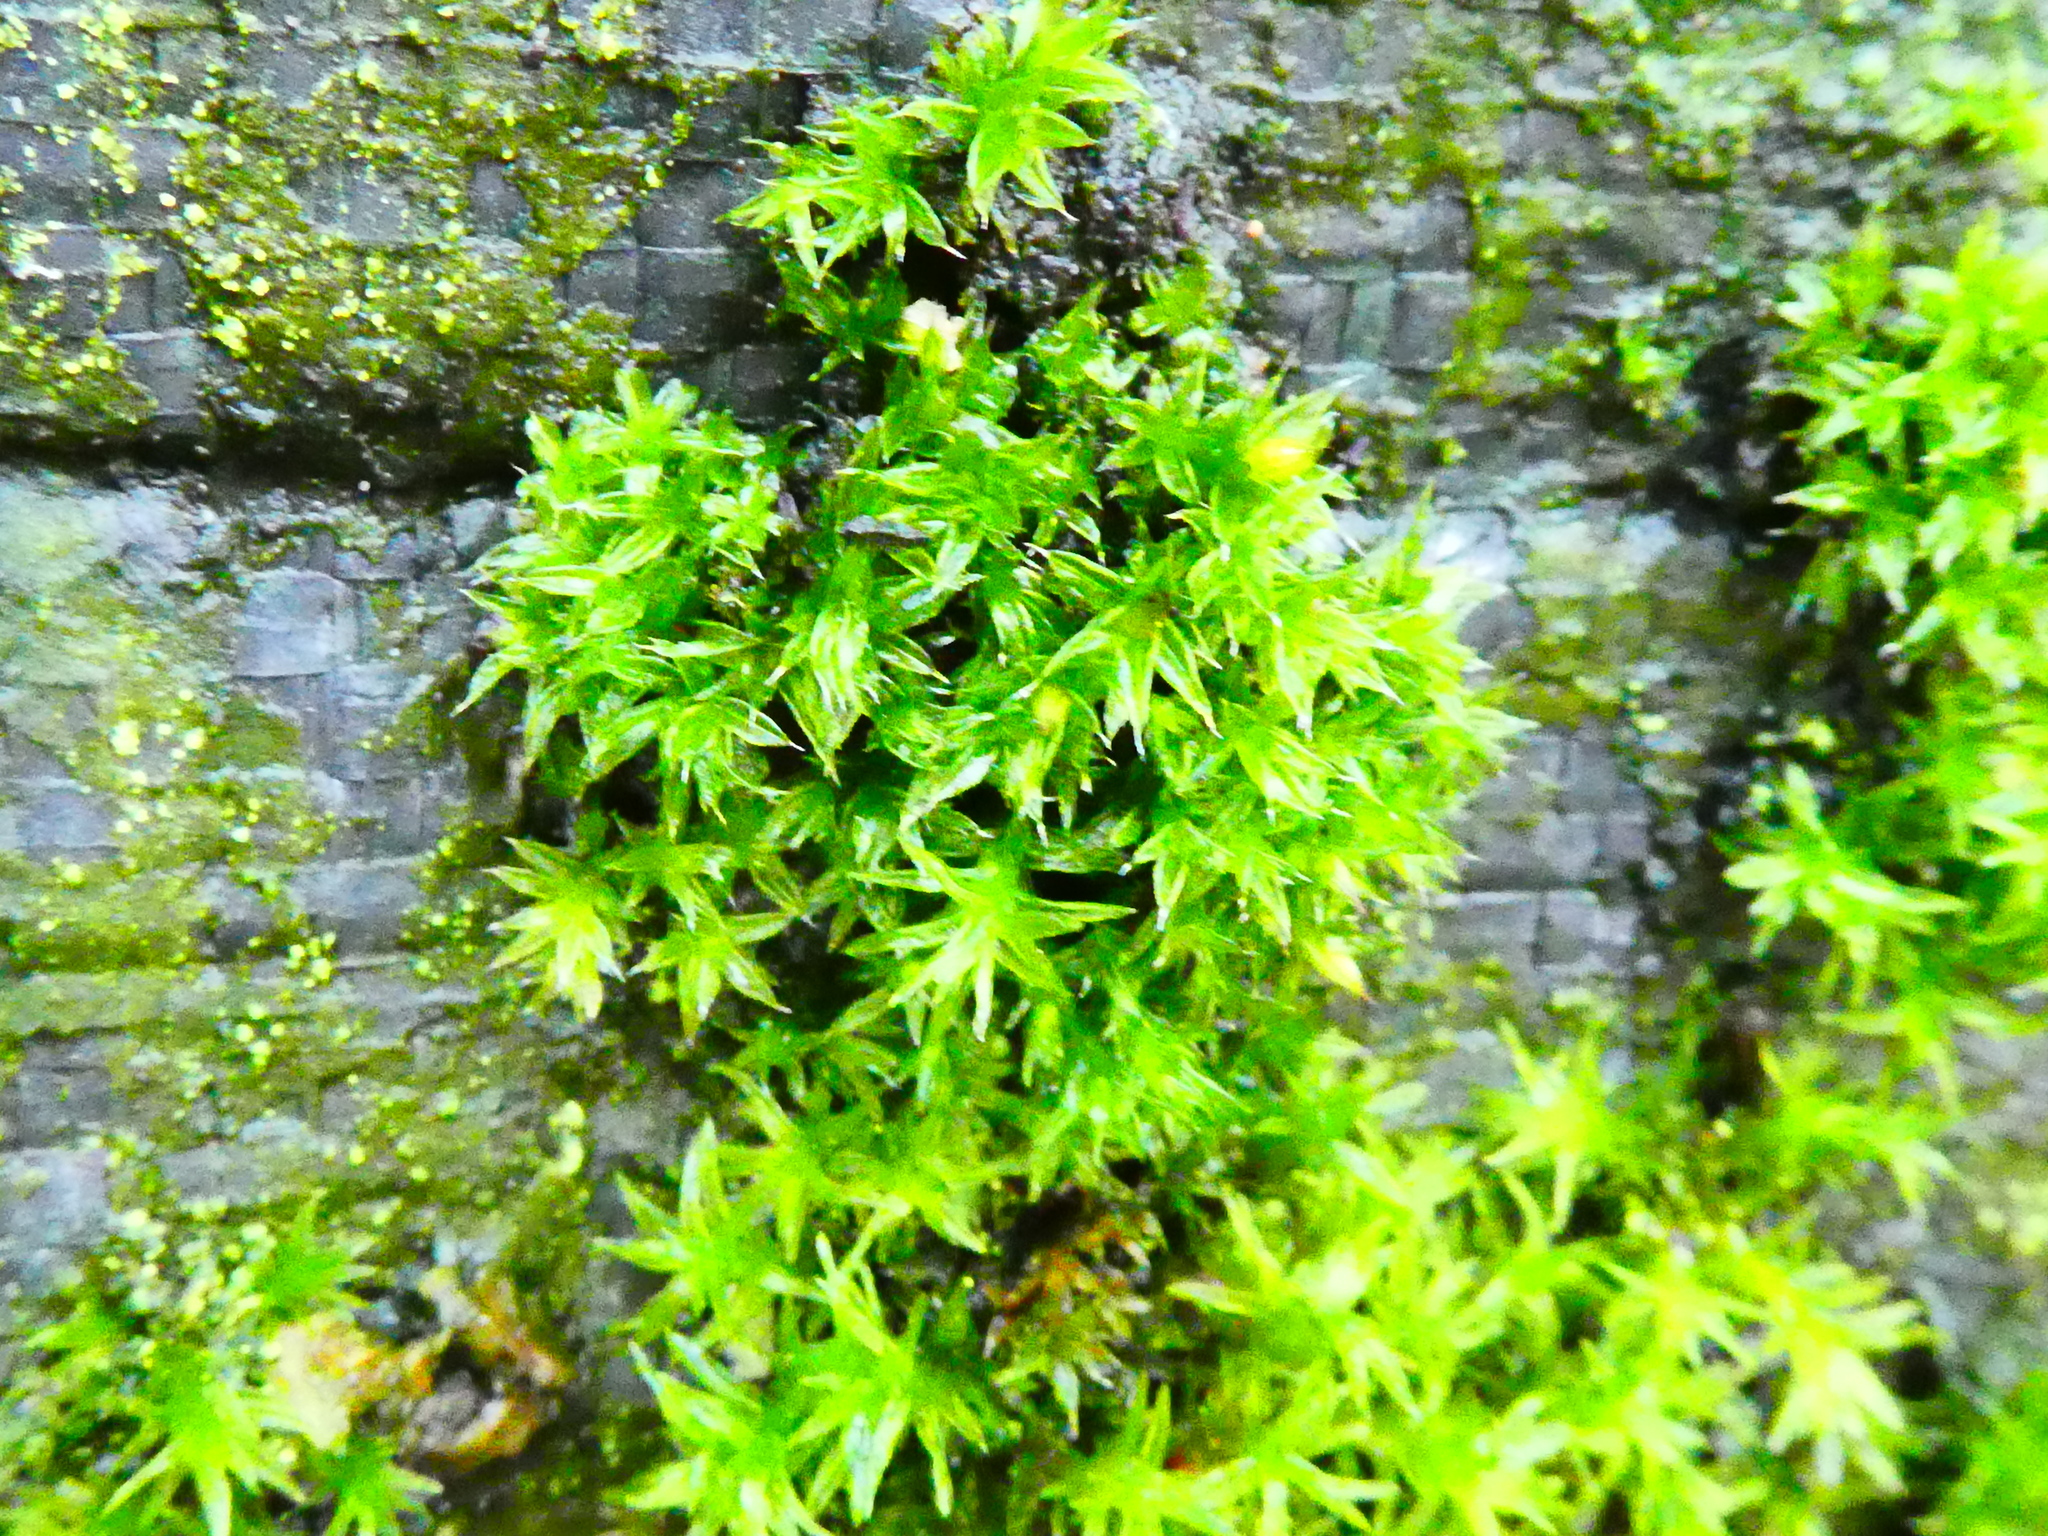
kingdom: Plantae
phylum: Bryophyta
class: Bryopsida
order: Orthotrichales
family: Orthotrichaceae
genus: Orthotrichum
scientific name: Orthotrichum diaphanum
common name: White-tipped bristle-moss
